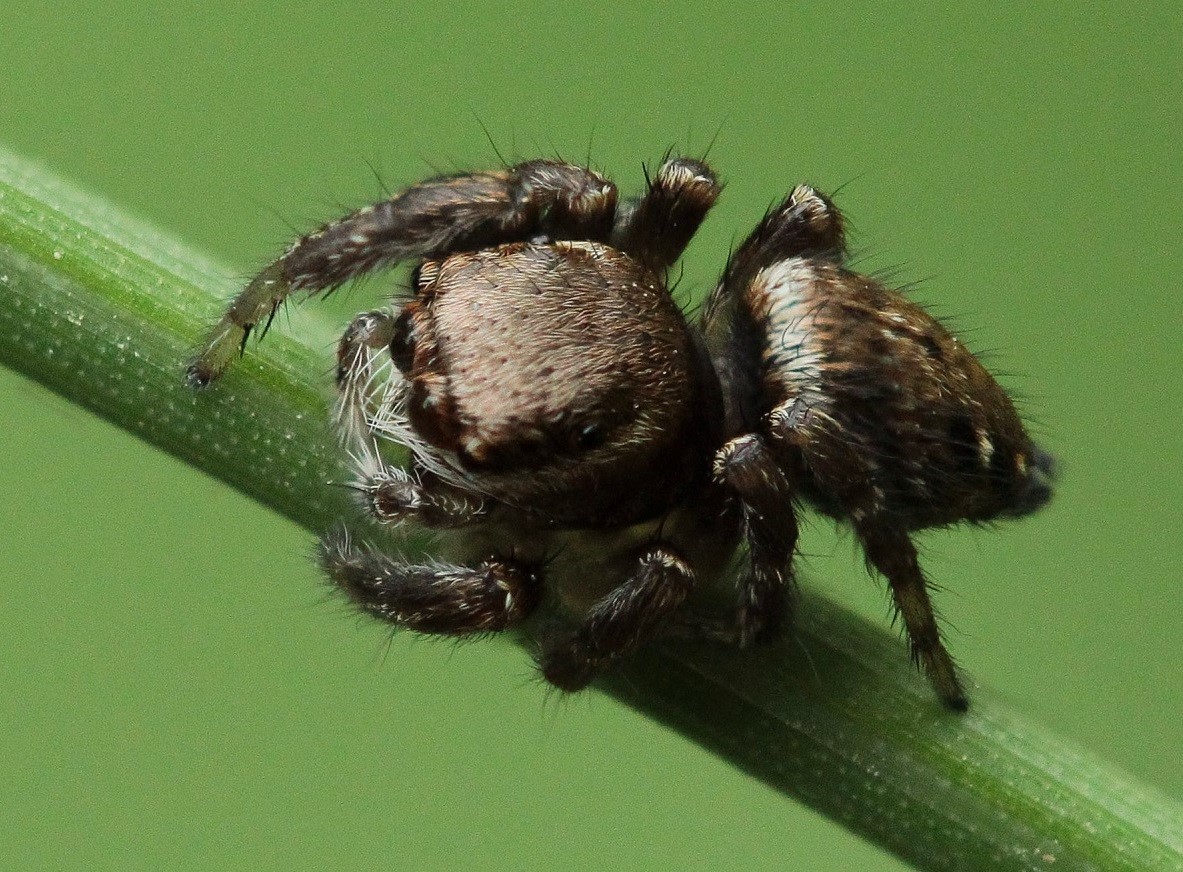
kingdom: Animalia
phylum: Arthropoda
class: Arachnida
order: Araneae
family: Salticidae
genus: Evarcha
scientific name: Evarcha arcuata
